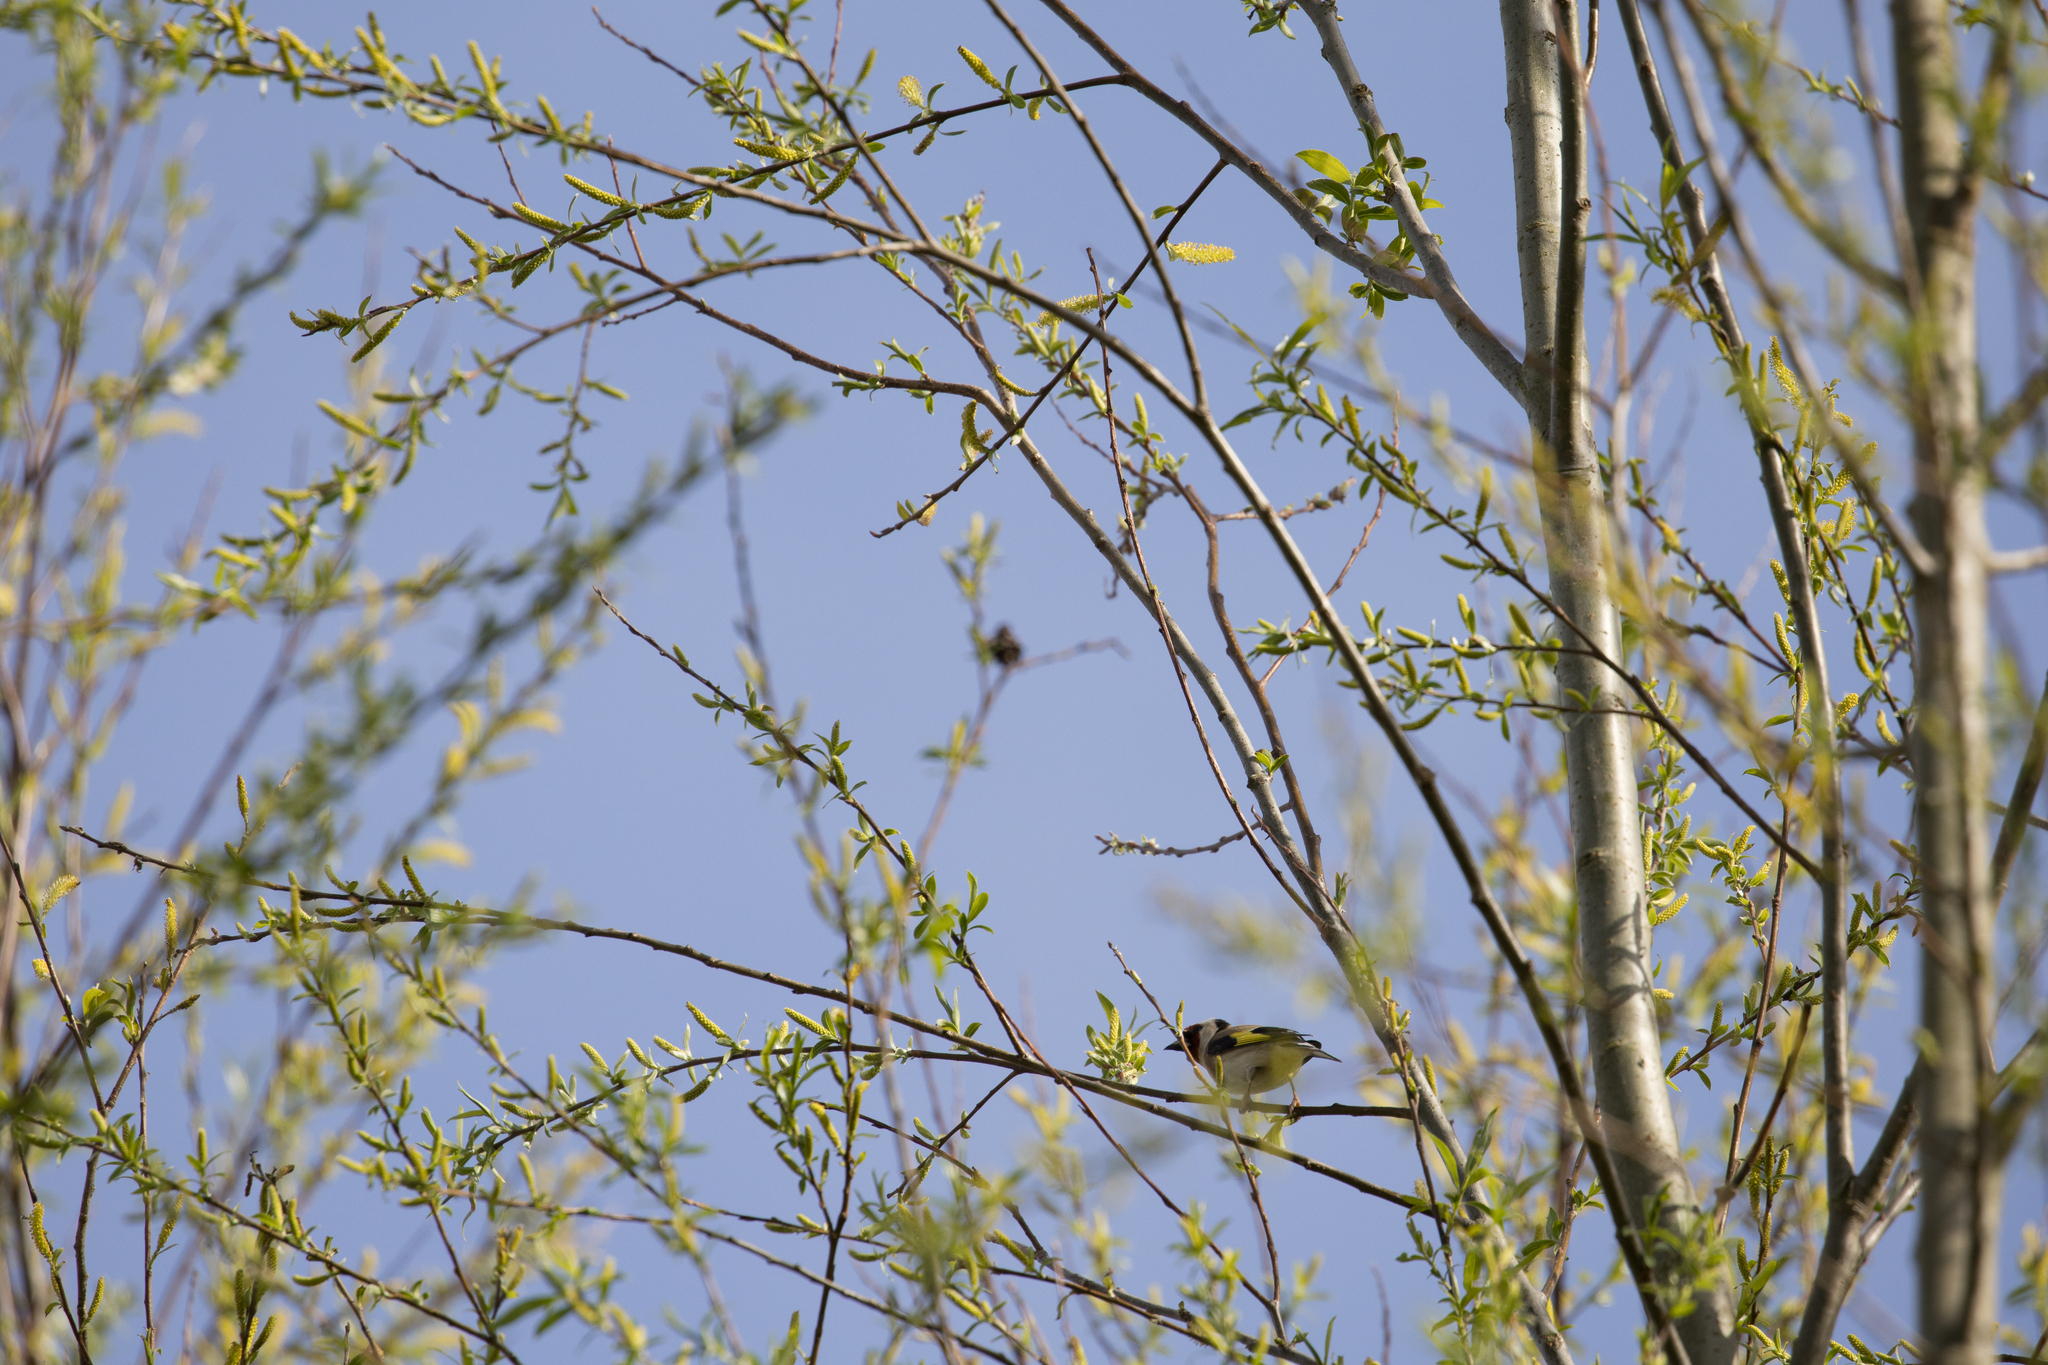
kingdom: Animalia
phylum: Chordata
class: Aves
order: Passeriformes
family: Fringillidae
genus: Carduelis
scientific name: Carduelis carduelis
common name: European goldfinch
